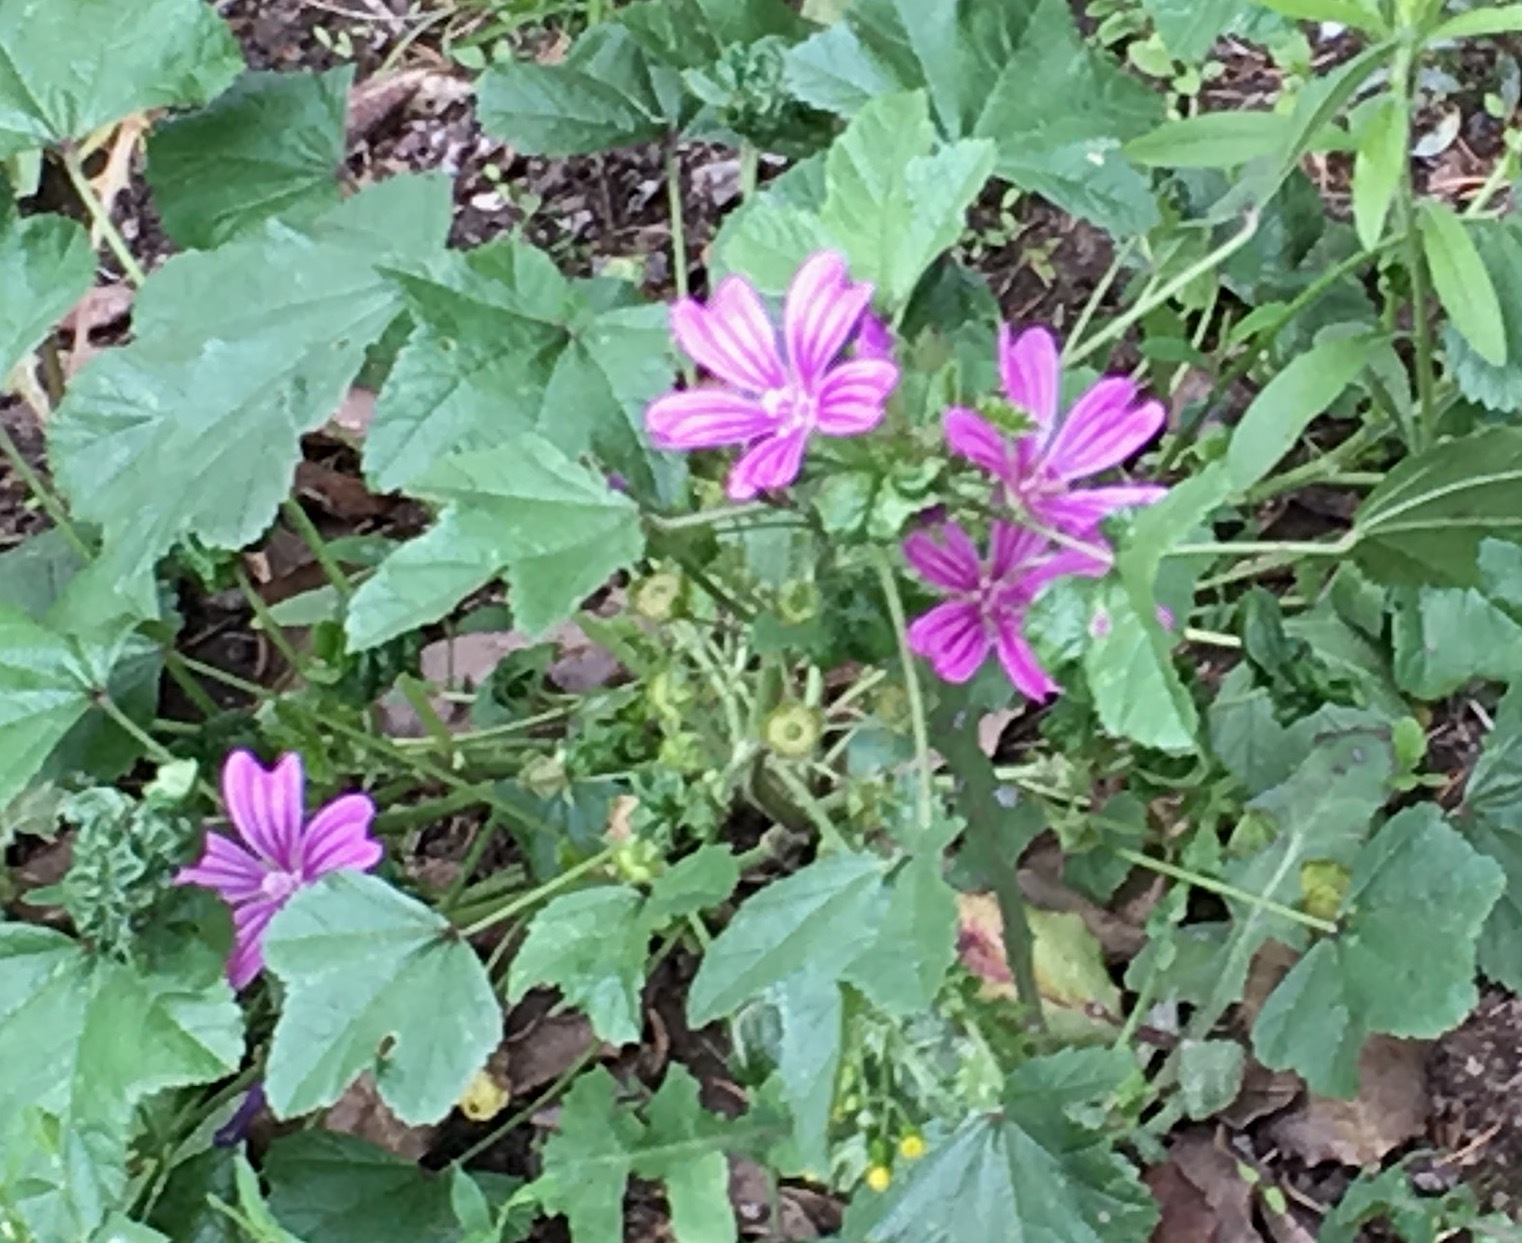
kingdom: Plantae
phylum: Tracheophyta
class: Magnoliopsida
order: Malvales
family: Malvaceae
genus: Malva
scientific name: Malva sylvestris
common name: Common mallow
